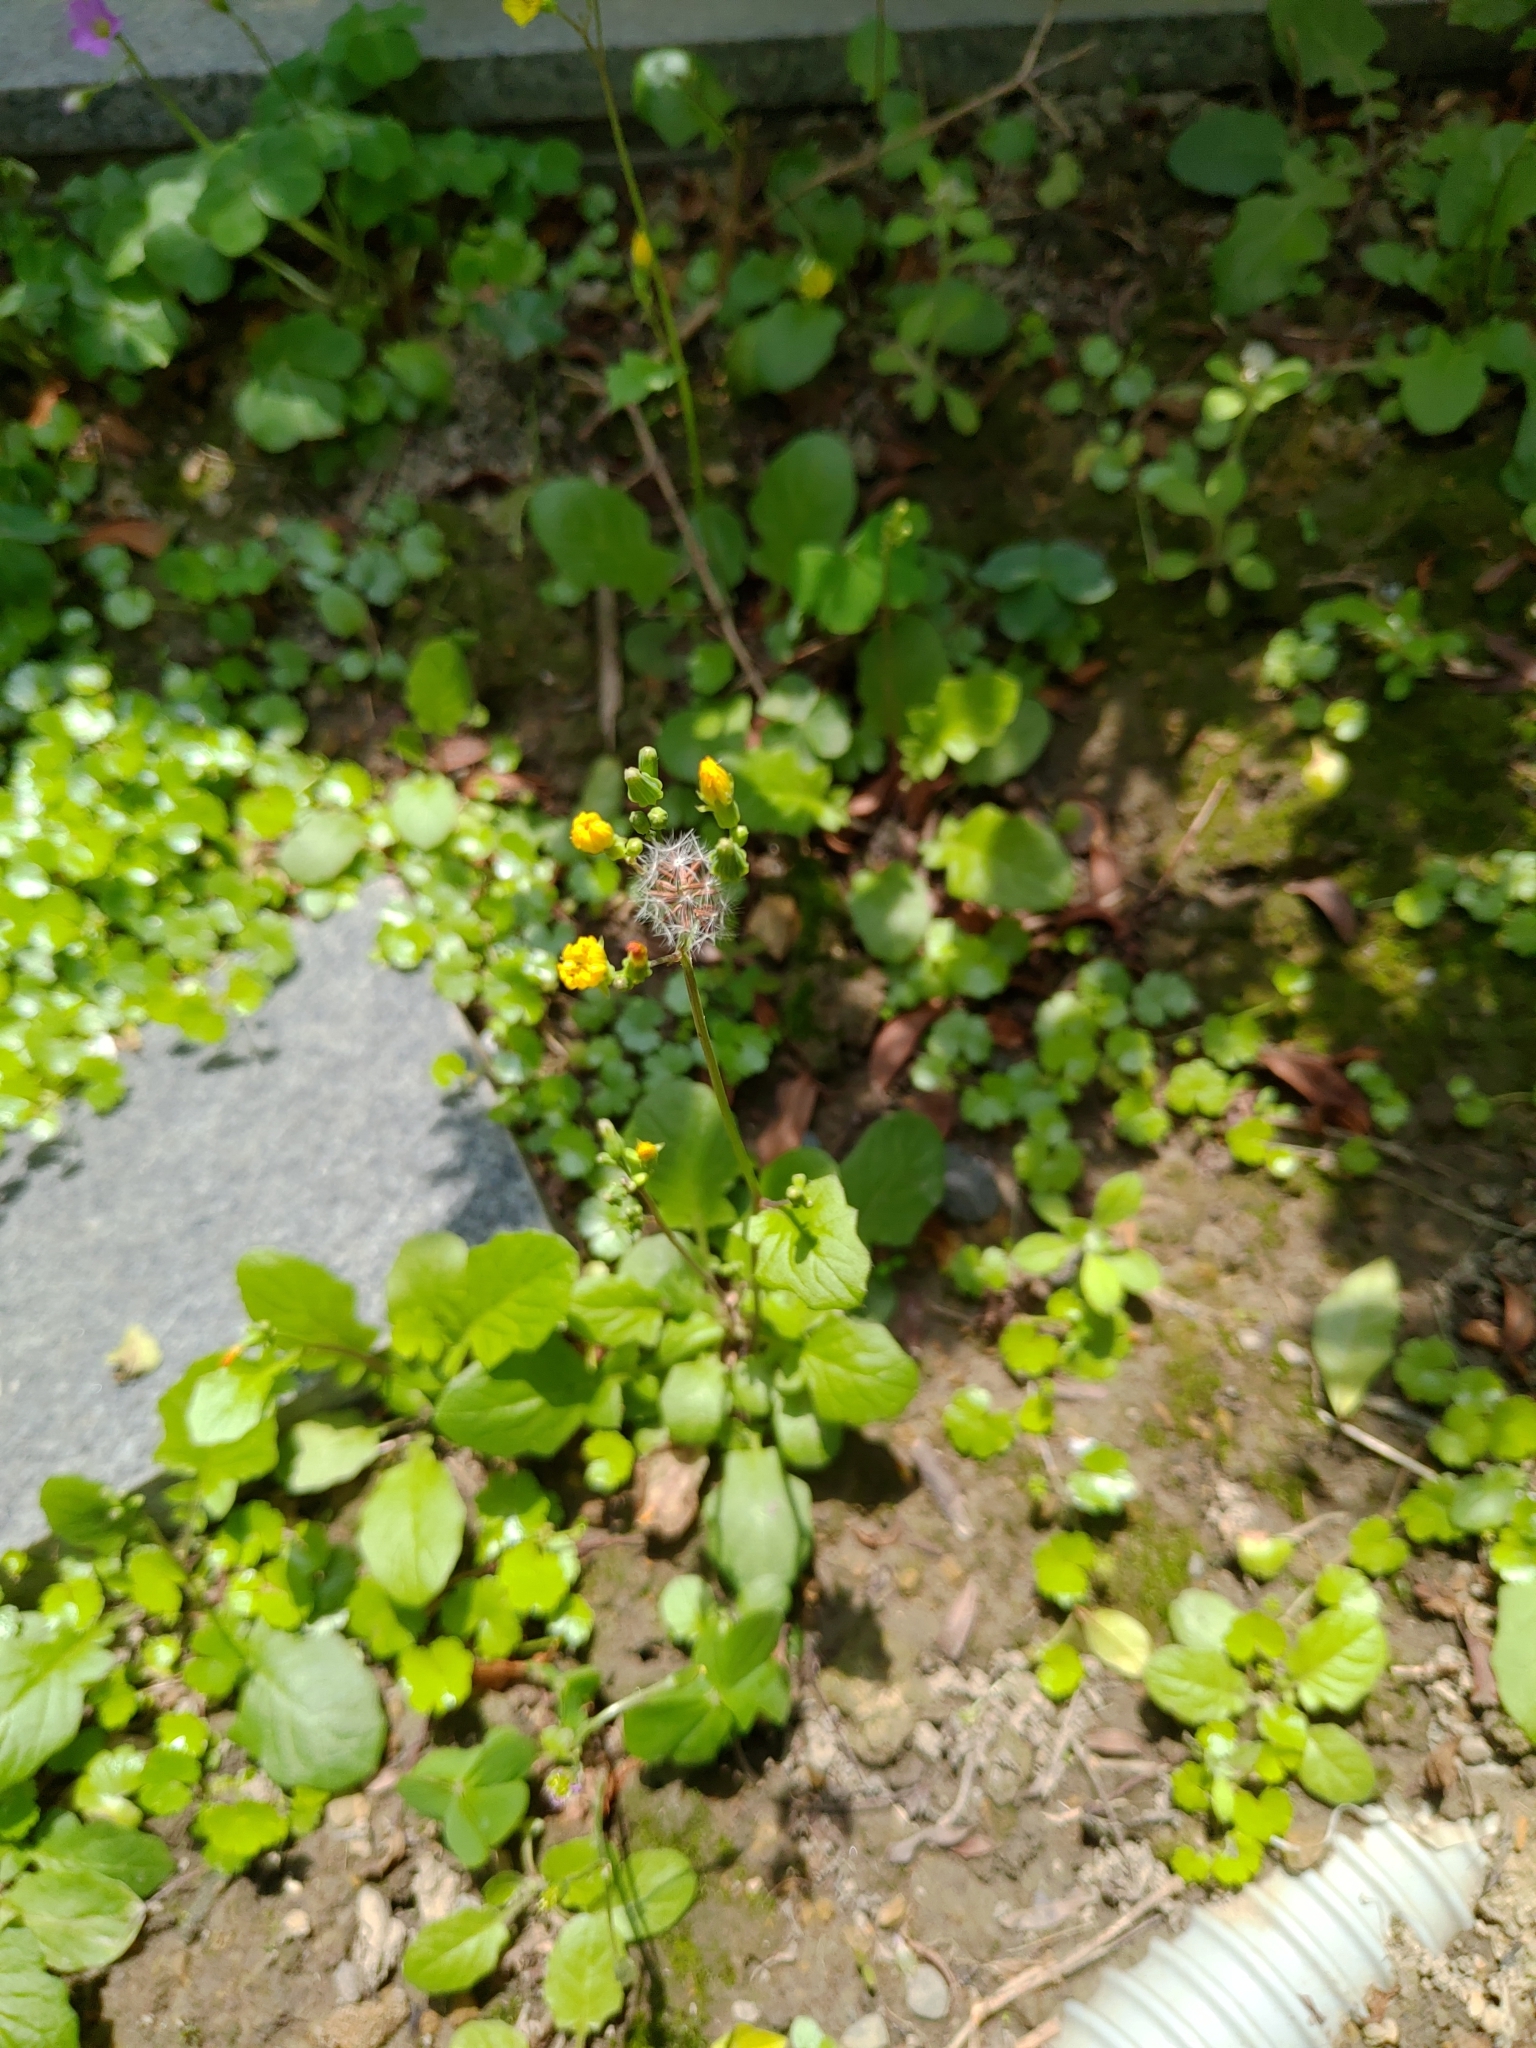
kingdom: Plantae
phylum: Tracheophyta
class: Magnoliopsida
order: Asterales
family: Asteraceae
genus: Youngia
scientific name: Youngia japonica
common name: Oriental false hawksbeard
